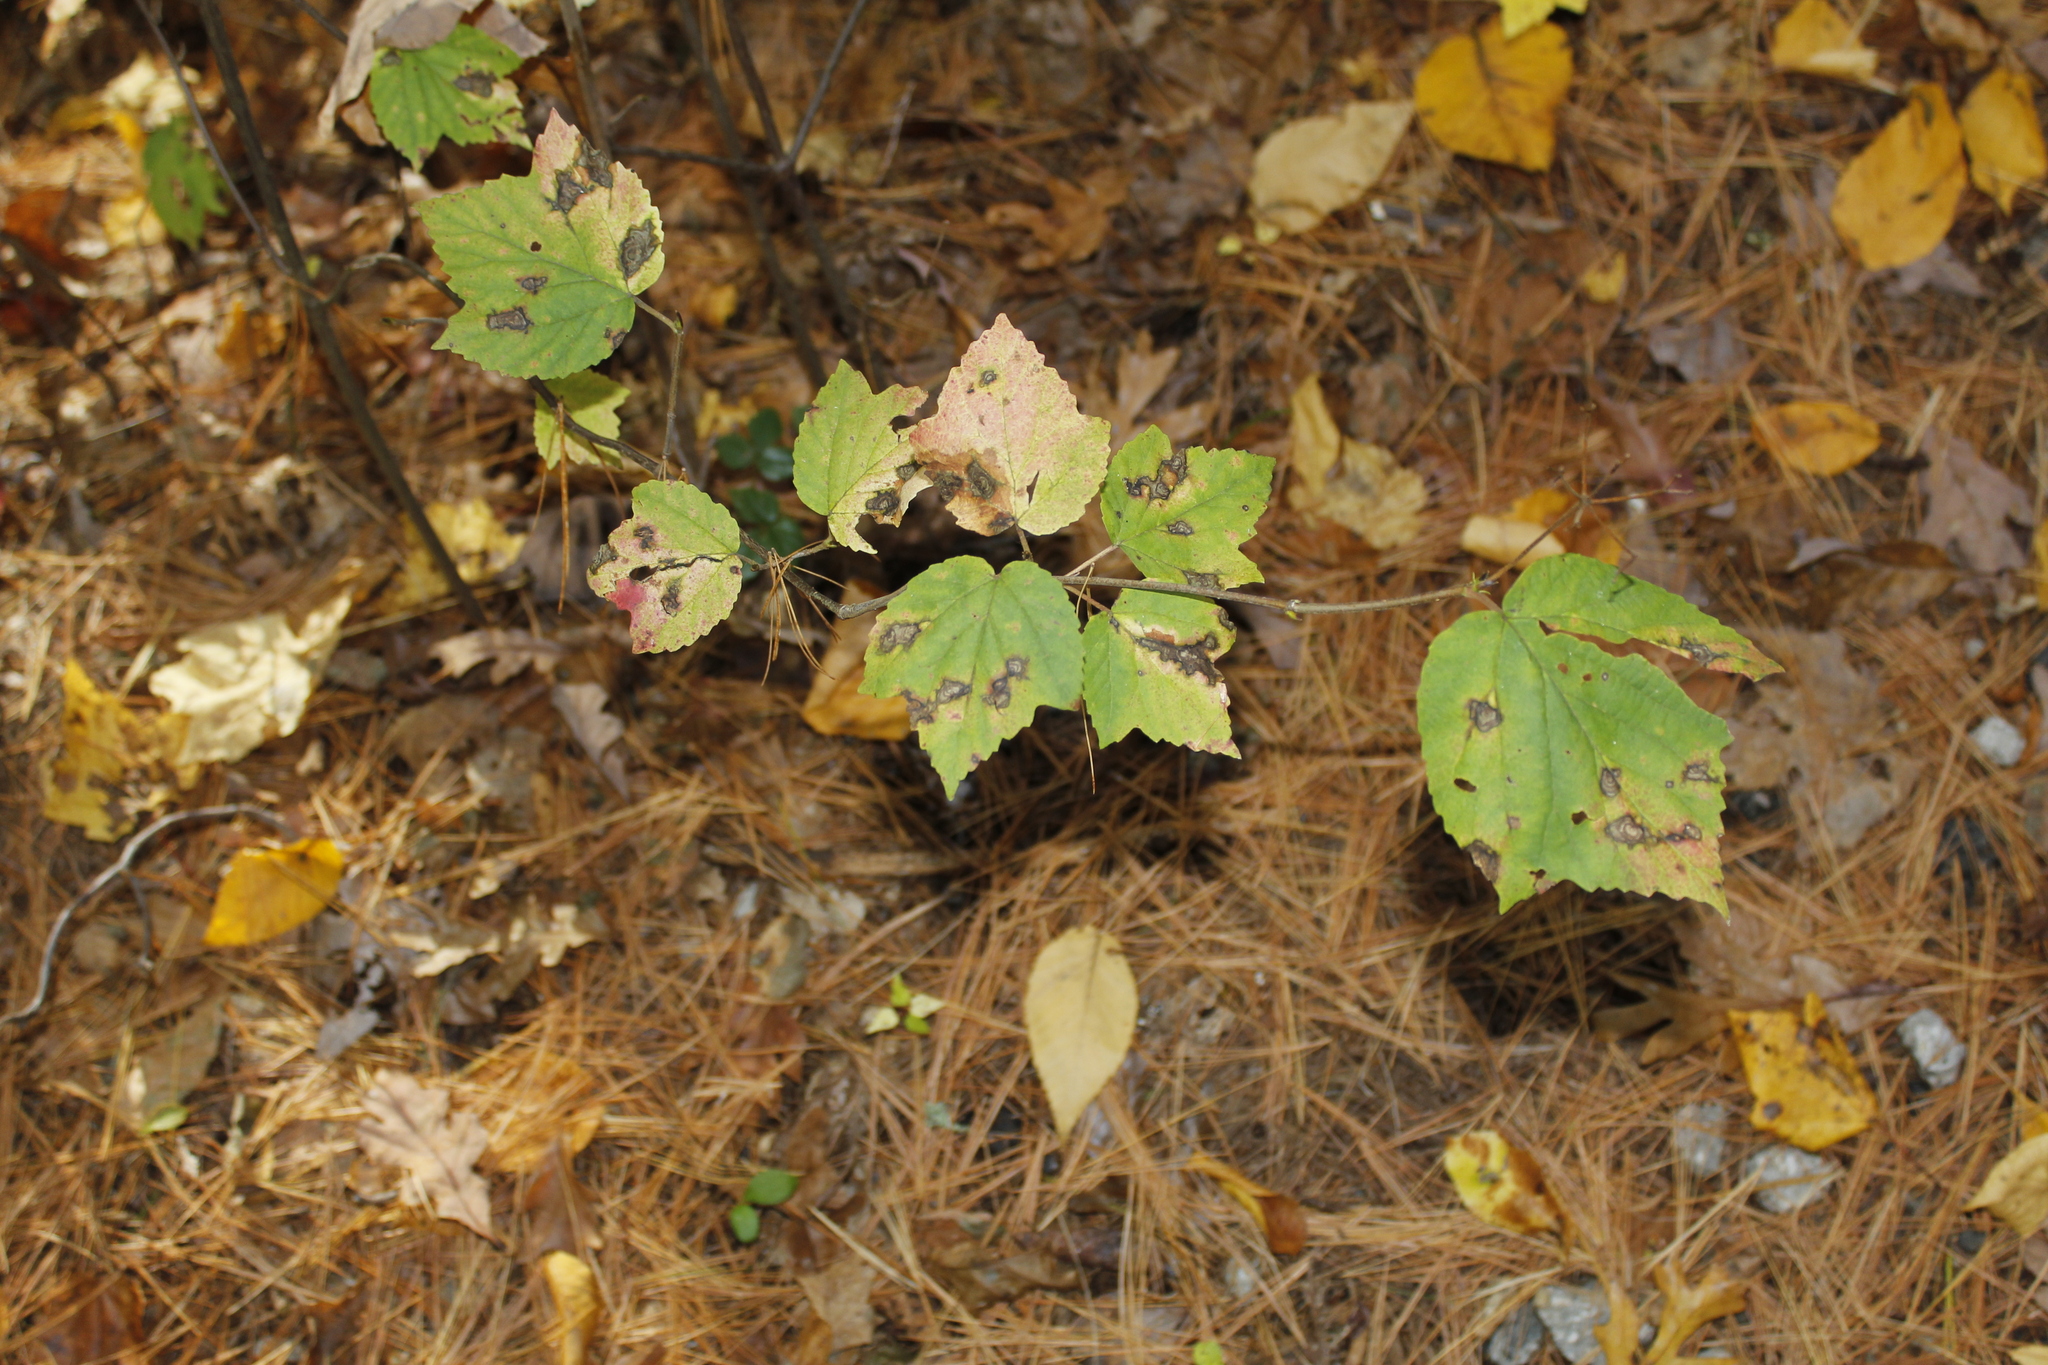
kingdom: Plantae
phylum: Tracheophyta
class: Magnoliopsida
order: Dipsacales
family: Viburnaceae
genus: Viburnum
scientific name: Viburnum acerifolium
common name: Dockmackie
